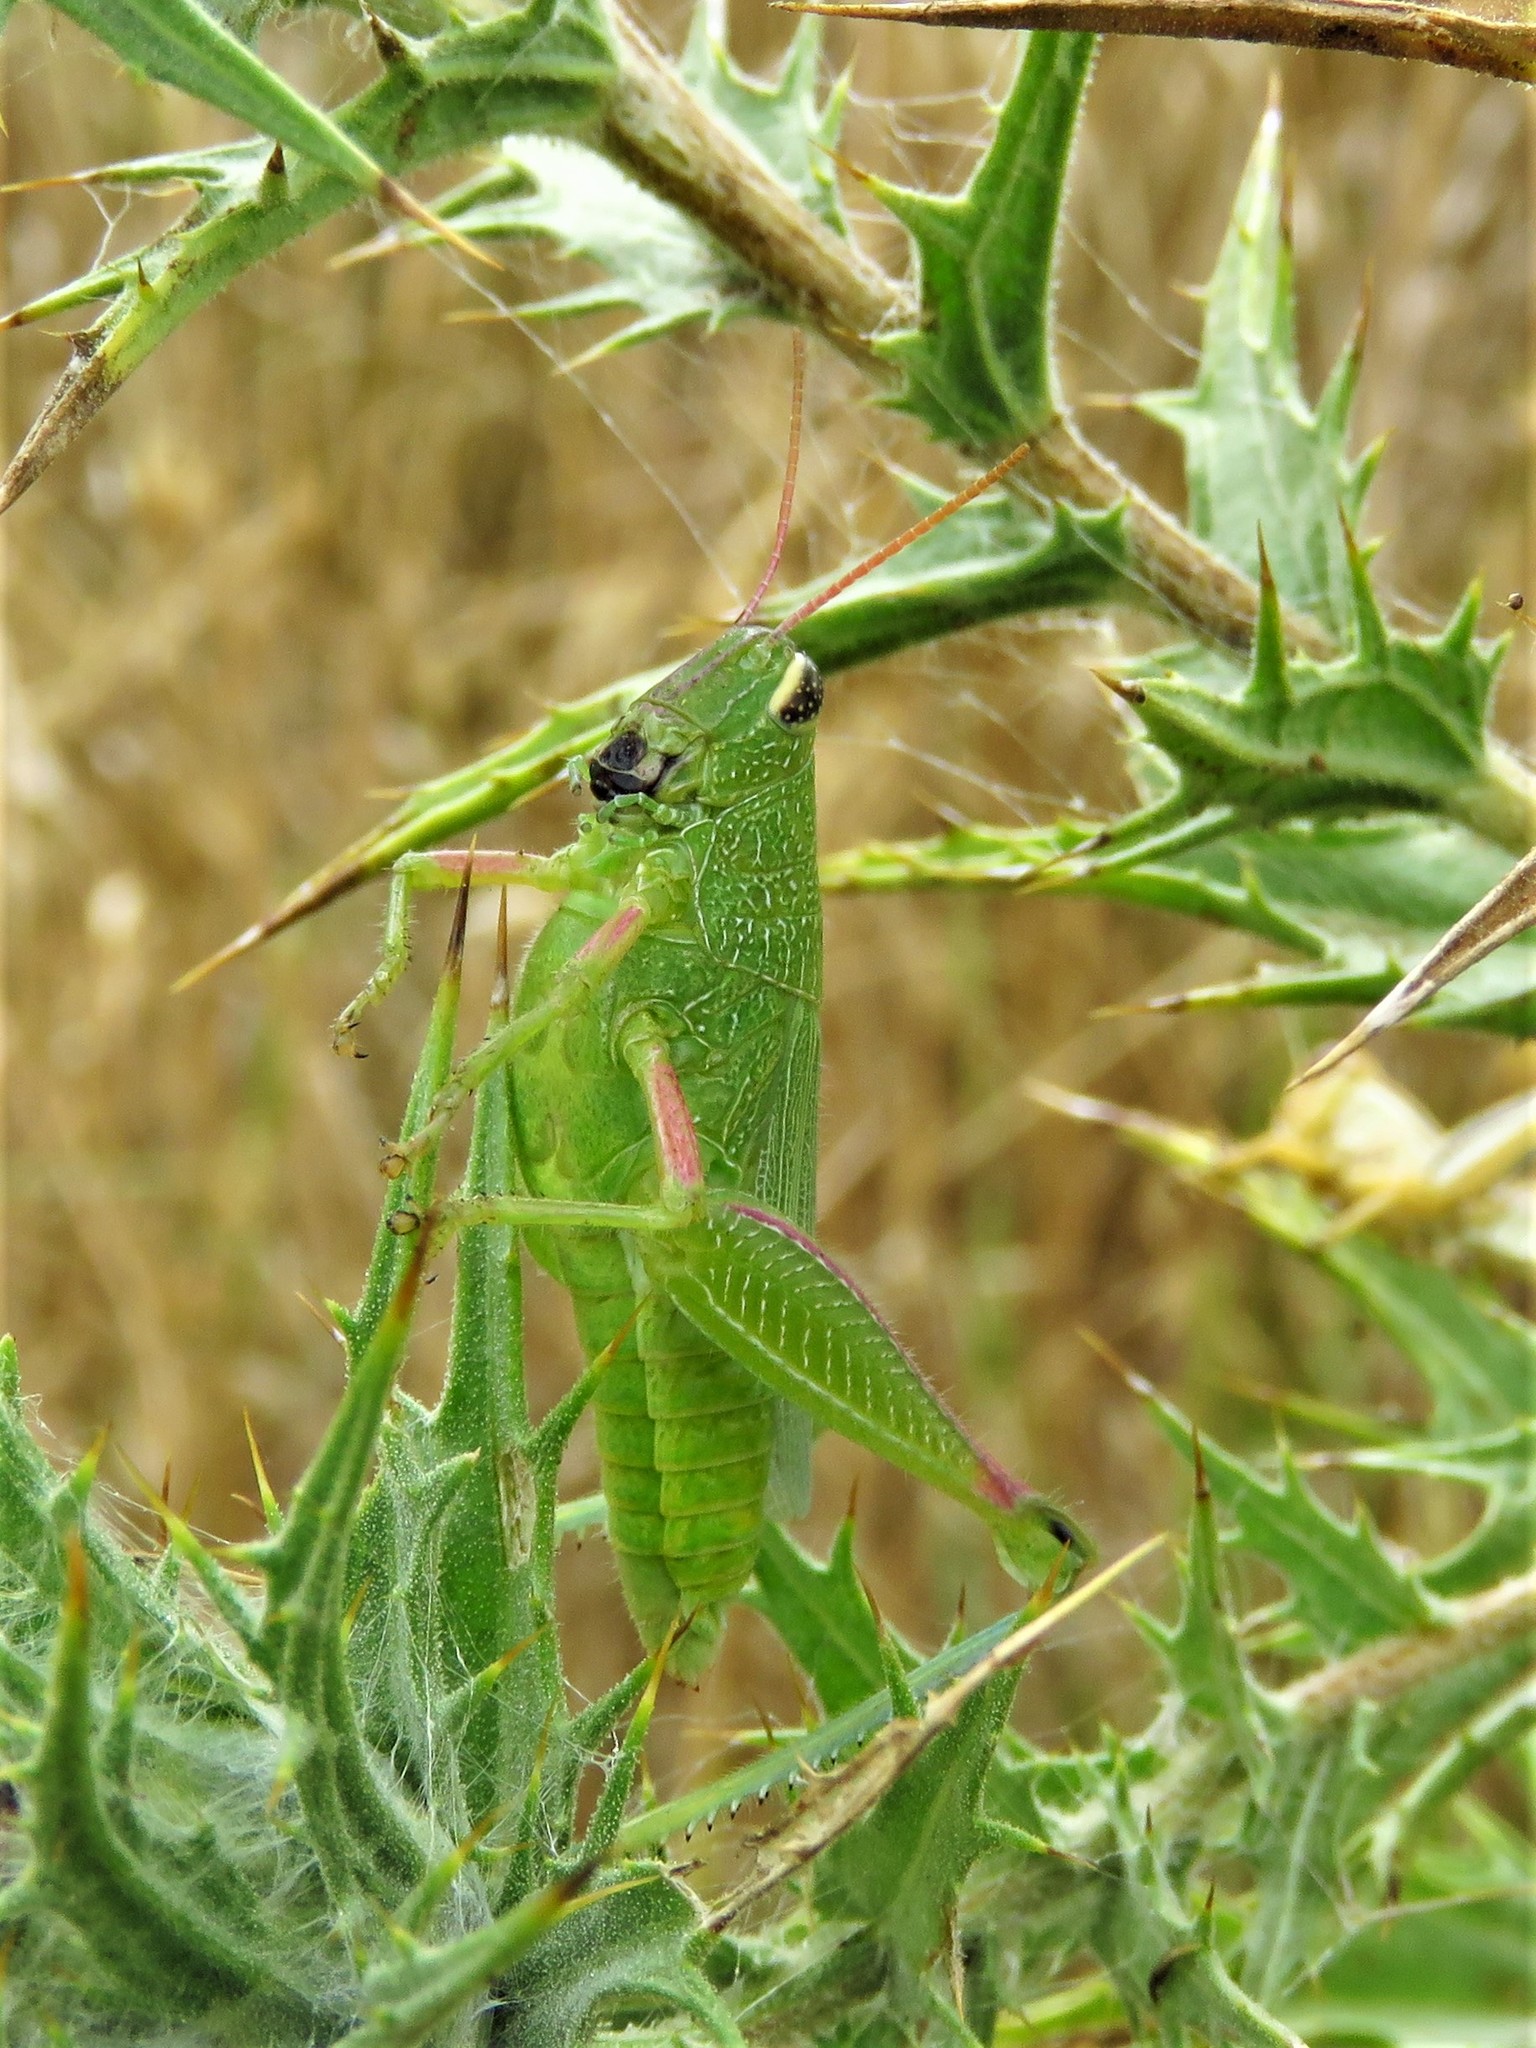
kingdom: Animalia
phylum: Arthropoda
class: Insecta
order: Orthoptera
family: Acrididae
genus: Hesperotettix
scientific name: Hesperotettix speciosus
